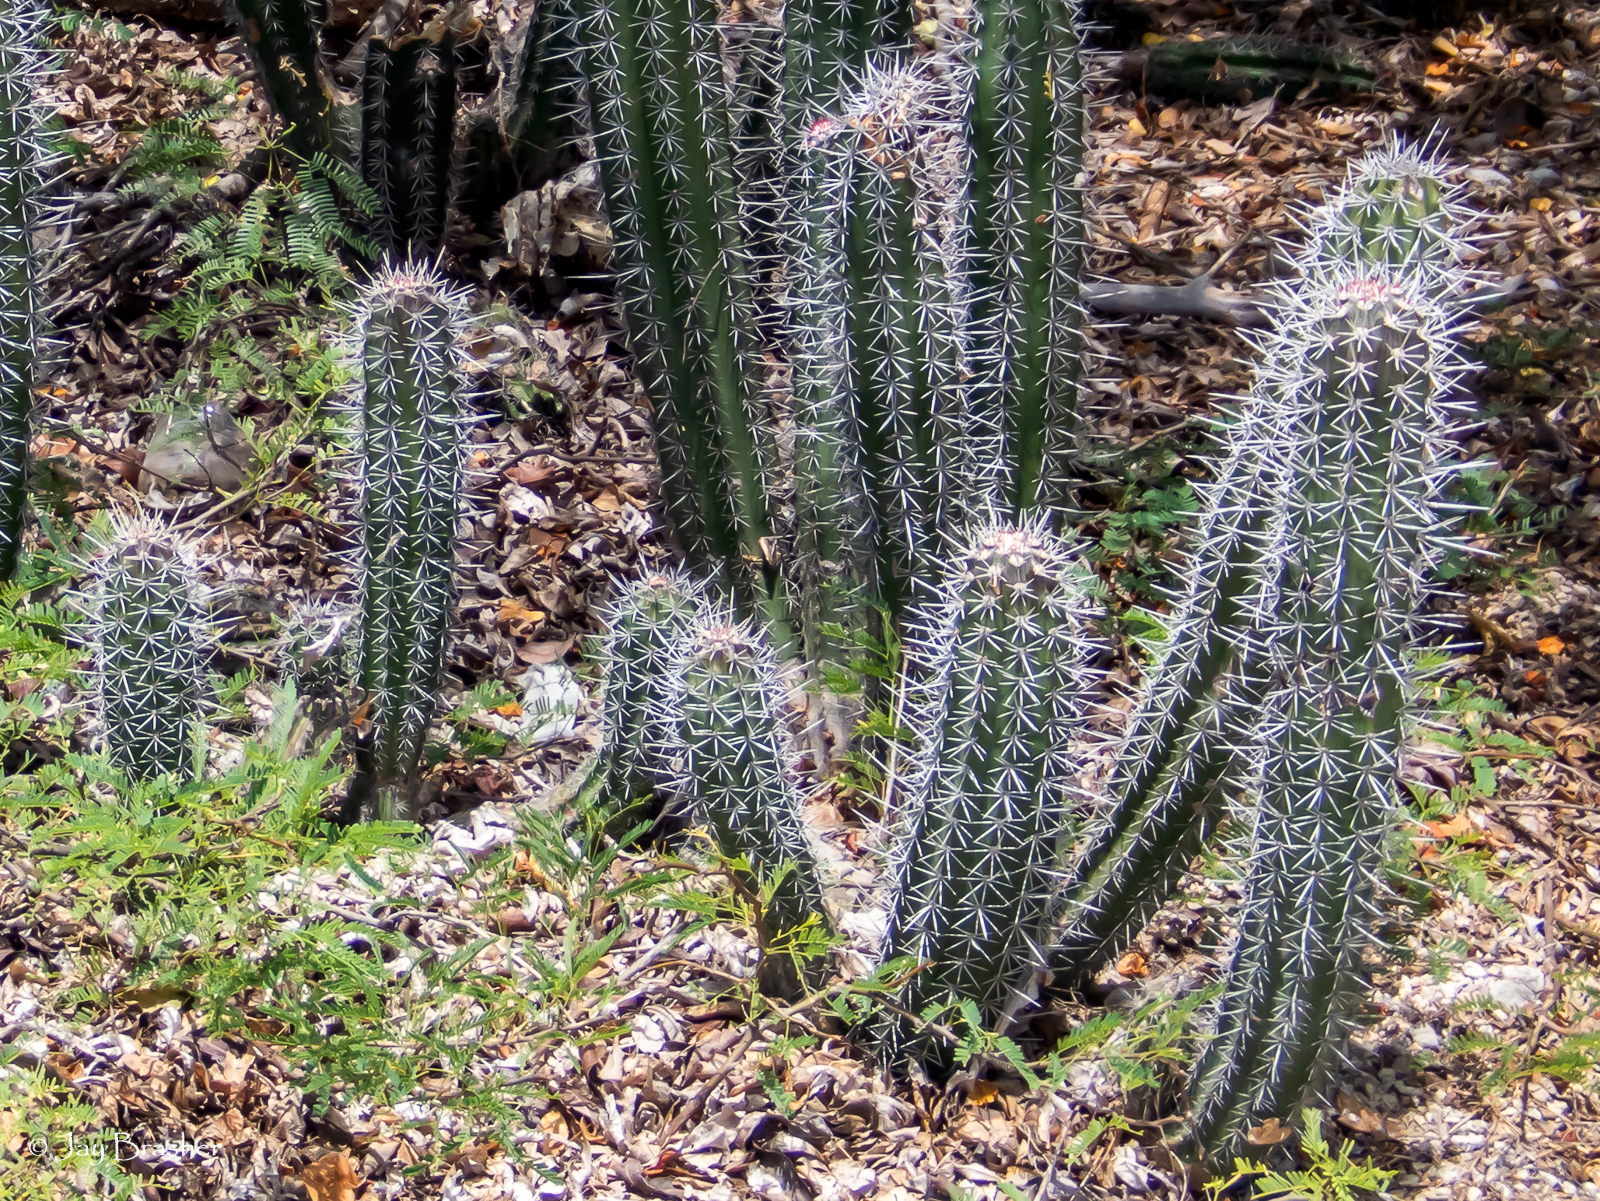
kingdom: Plantae
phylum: Tracheophyta
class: Magnoliopsida
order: Caryophyllales
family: Cactaceae
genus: Stenocereus
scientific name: Stenocereus griseus
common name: Tall candelabra cactus
